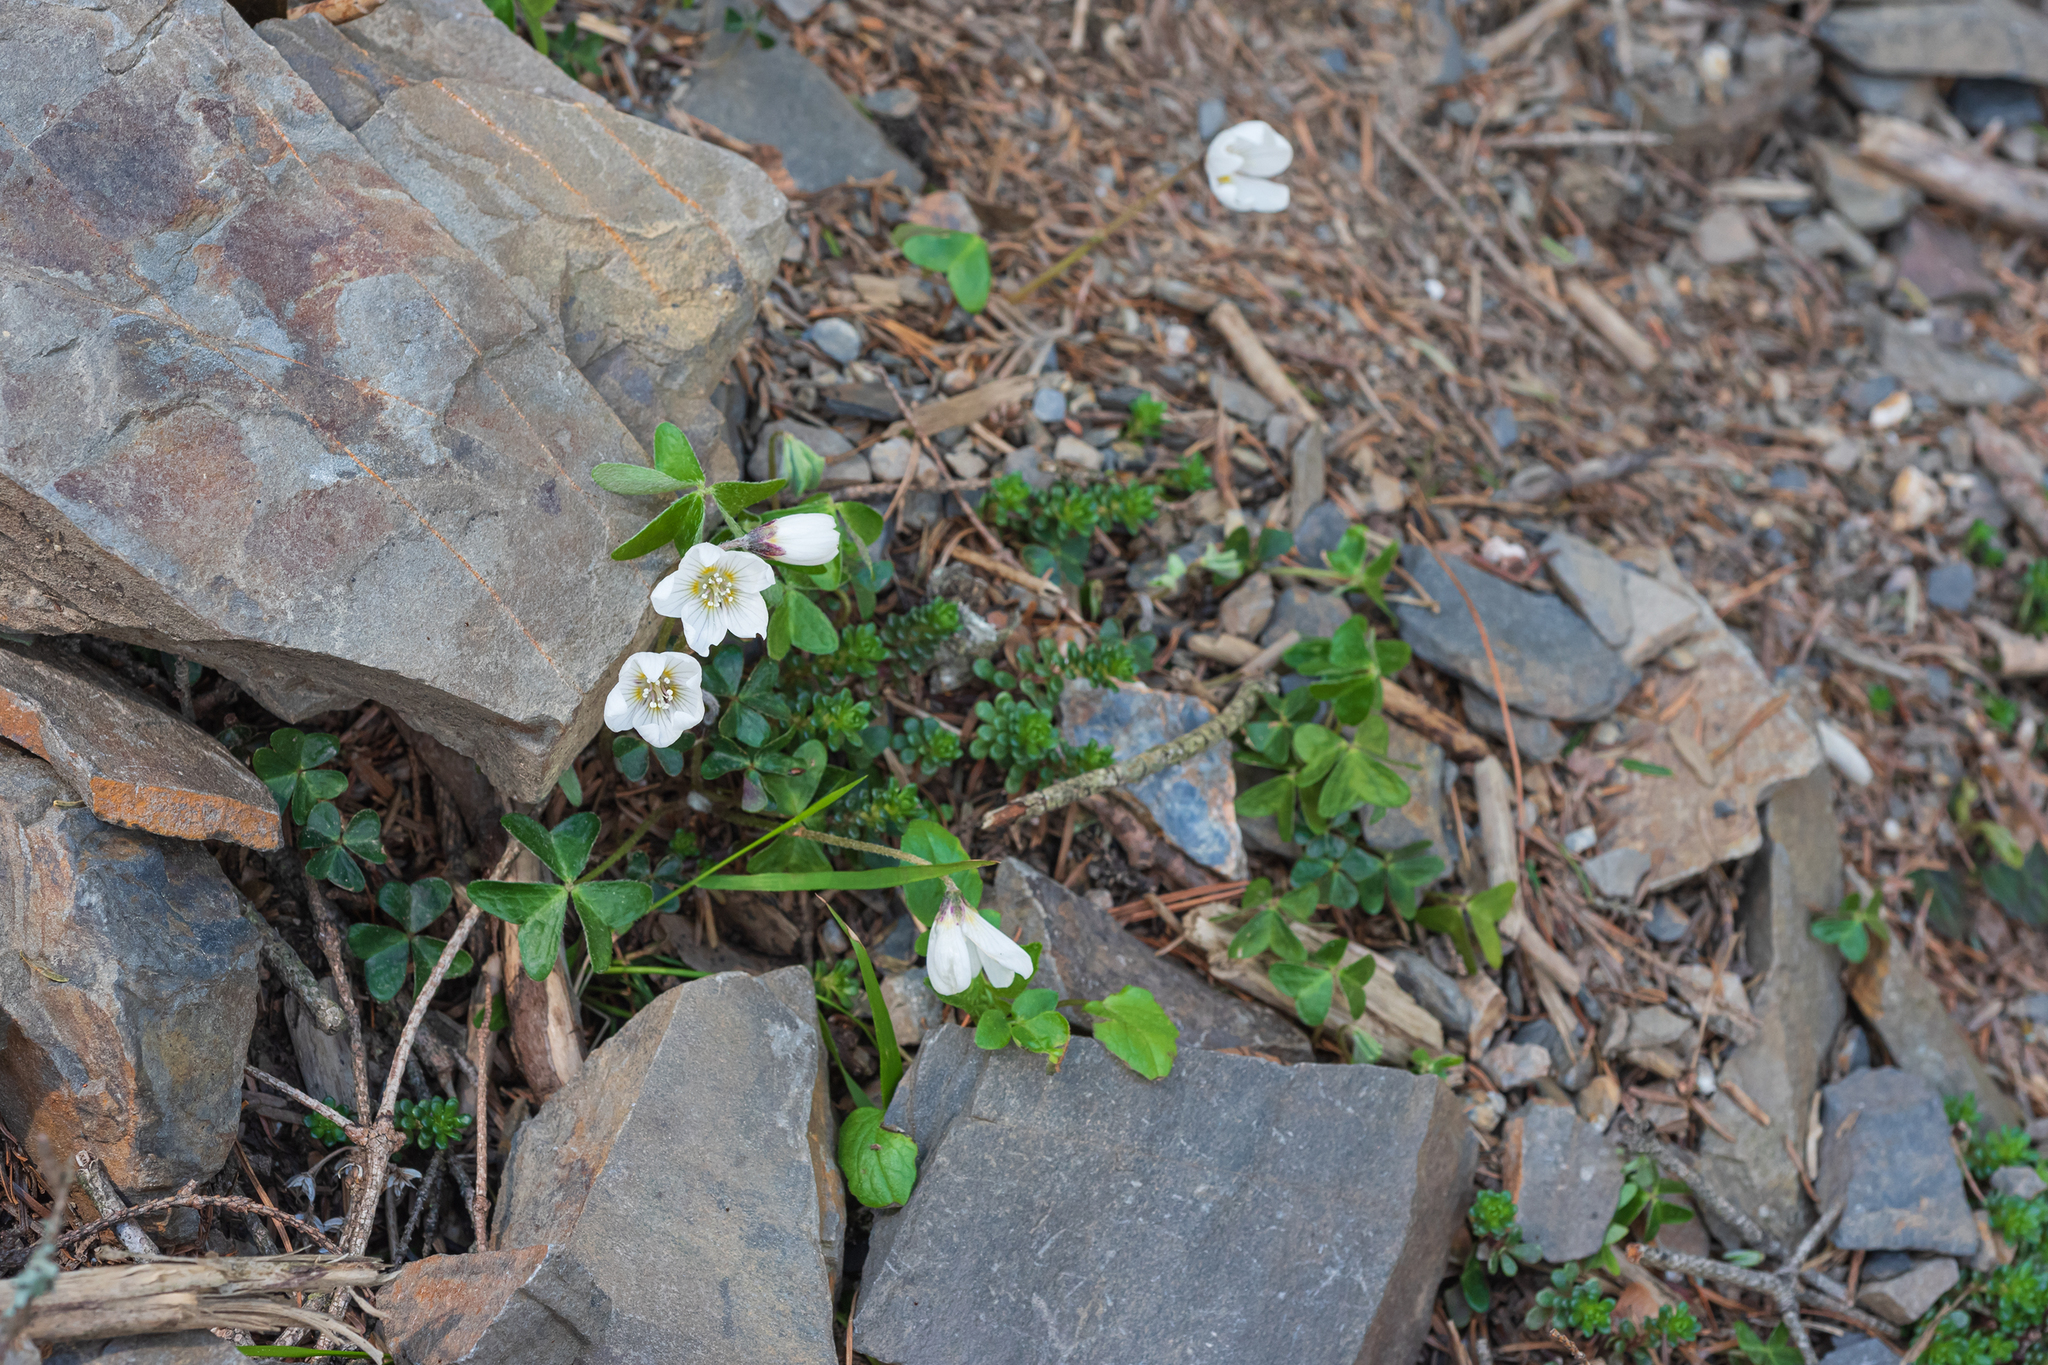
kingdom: Plantae
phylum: Tracheophyta
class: Magnoliopsida
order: Oxalidales
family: Oxalidaceae
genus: Oxalis
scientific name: Oxalis griffithii
